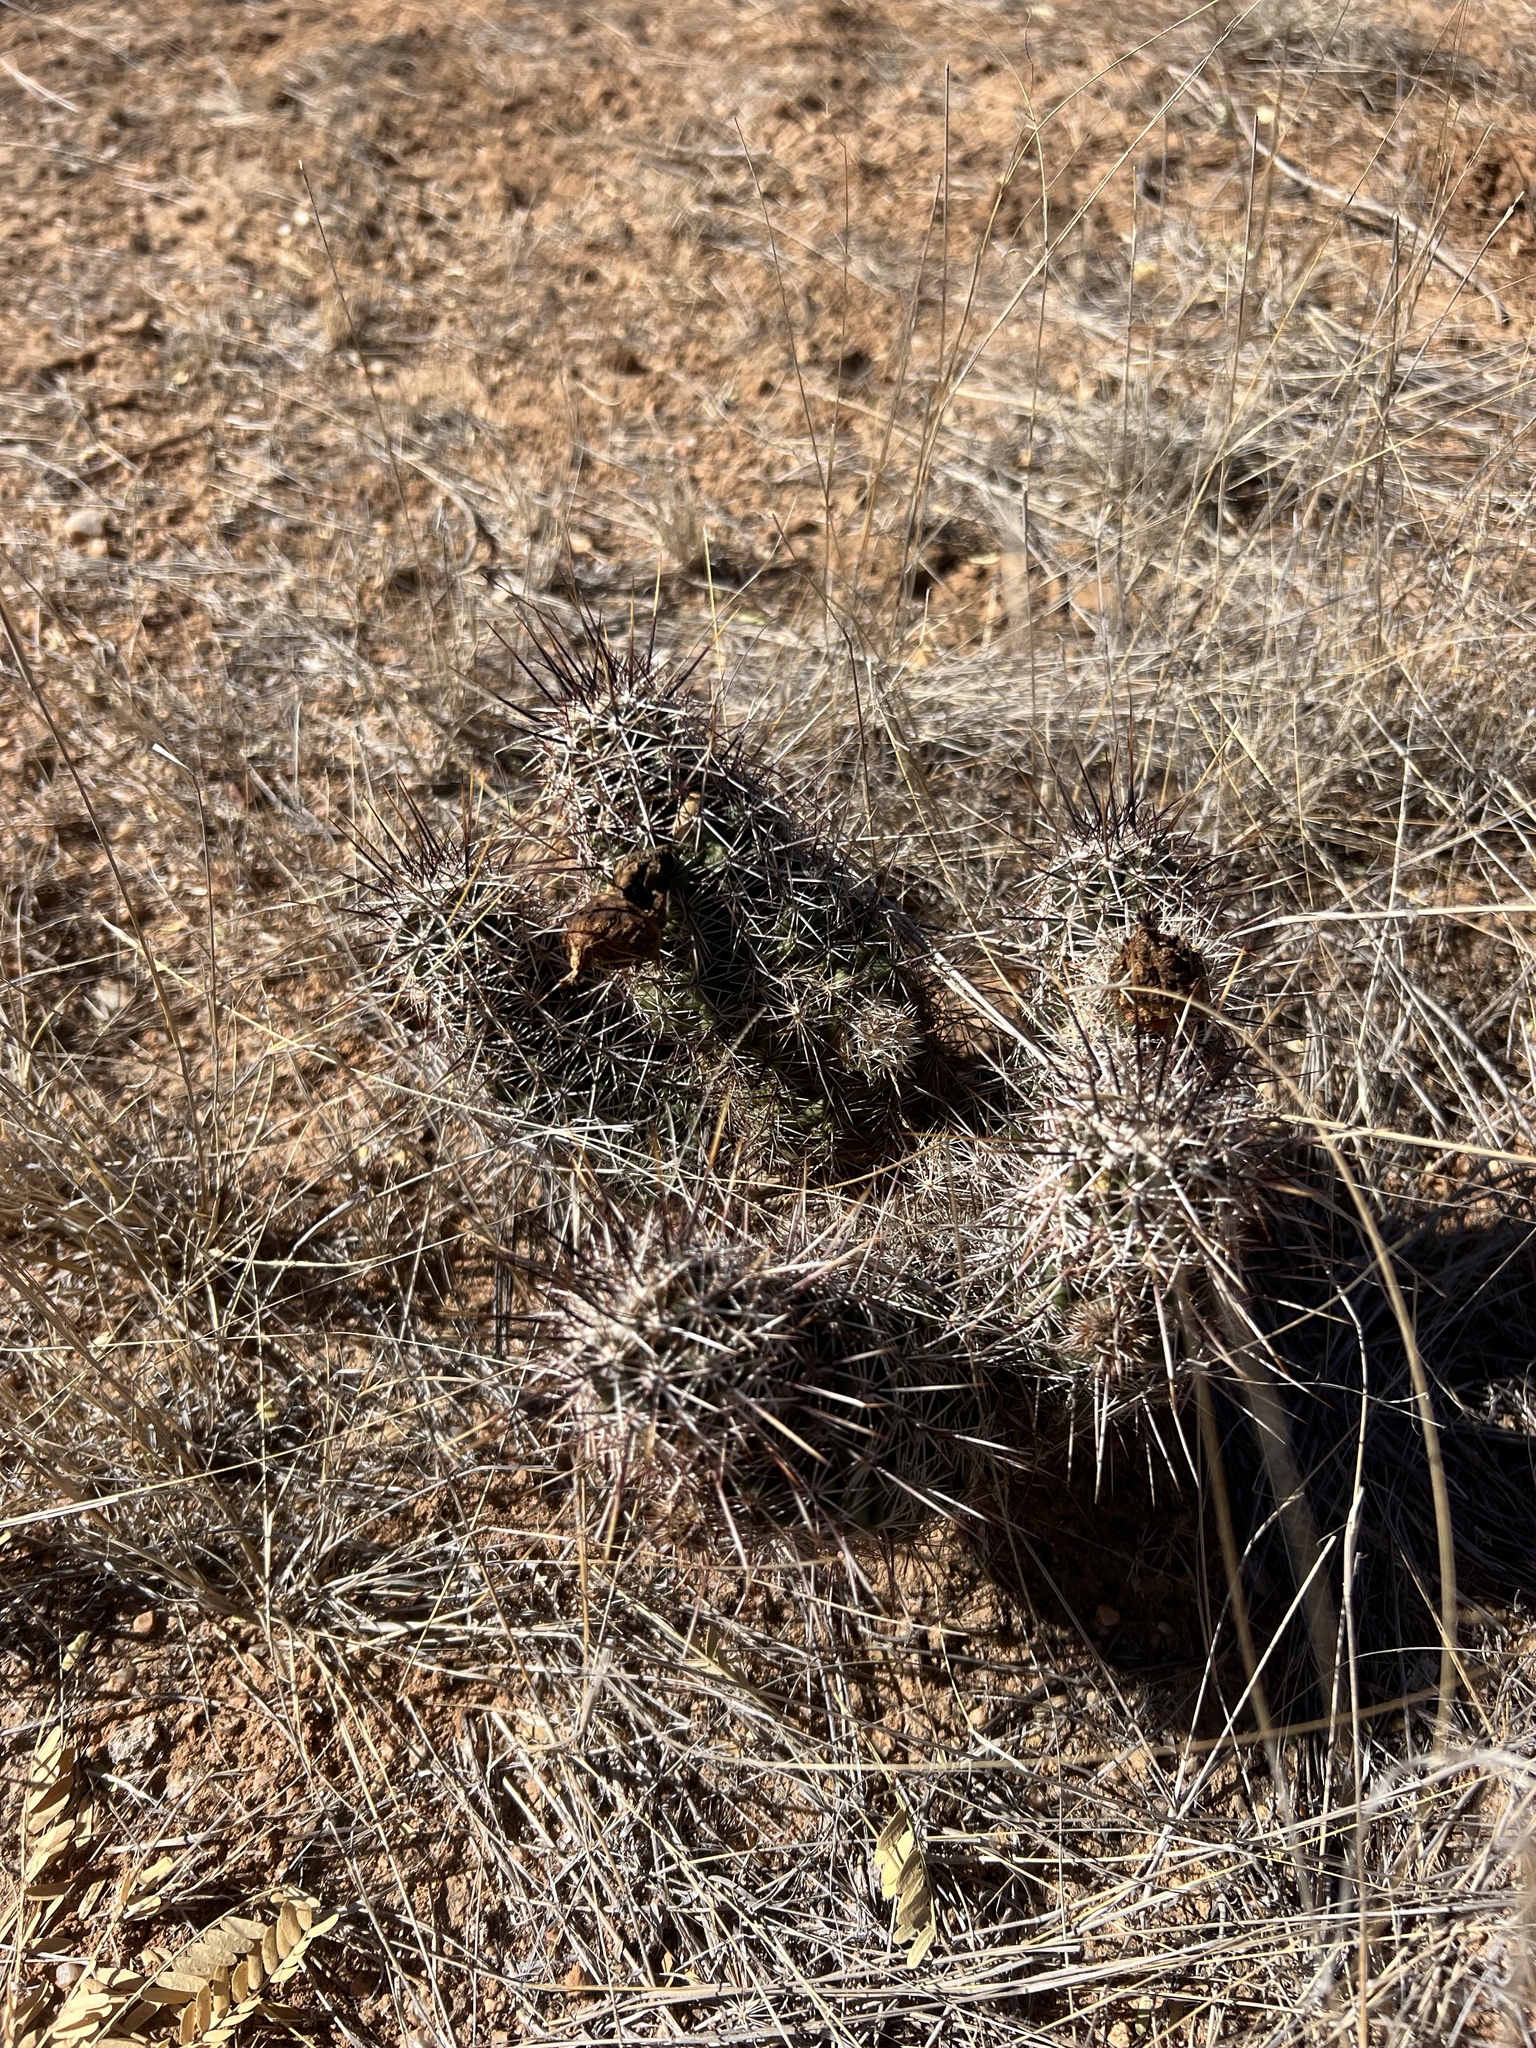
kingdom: Plantae
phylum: Tracheophyta
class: Magnoliopsida
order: Caryophyllales
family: Cactaceae
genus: Echinocereus
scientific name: Echinocereus fasciculatus
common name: Bundle hedgehog
